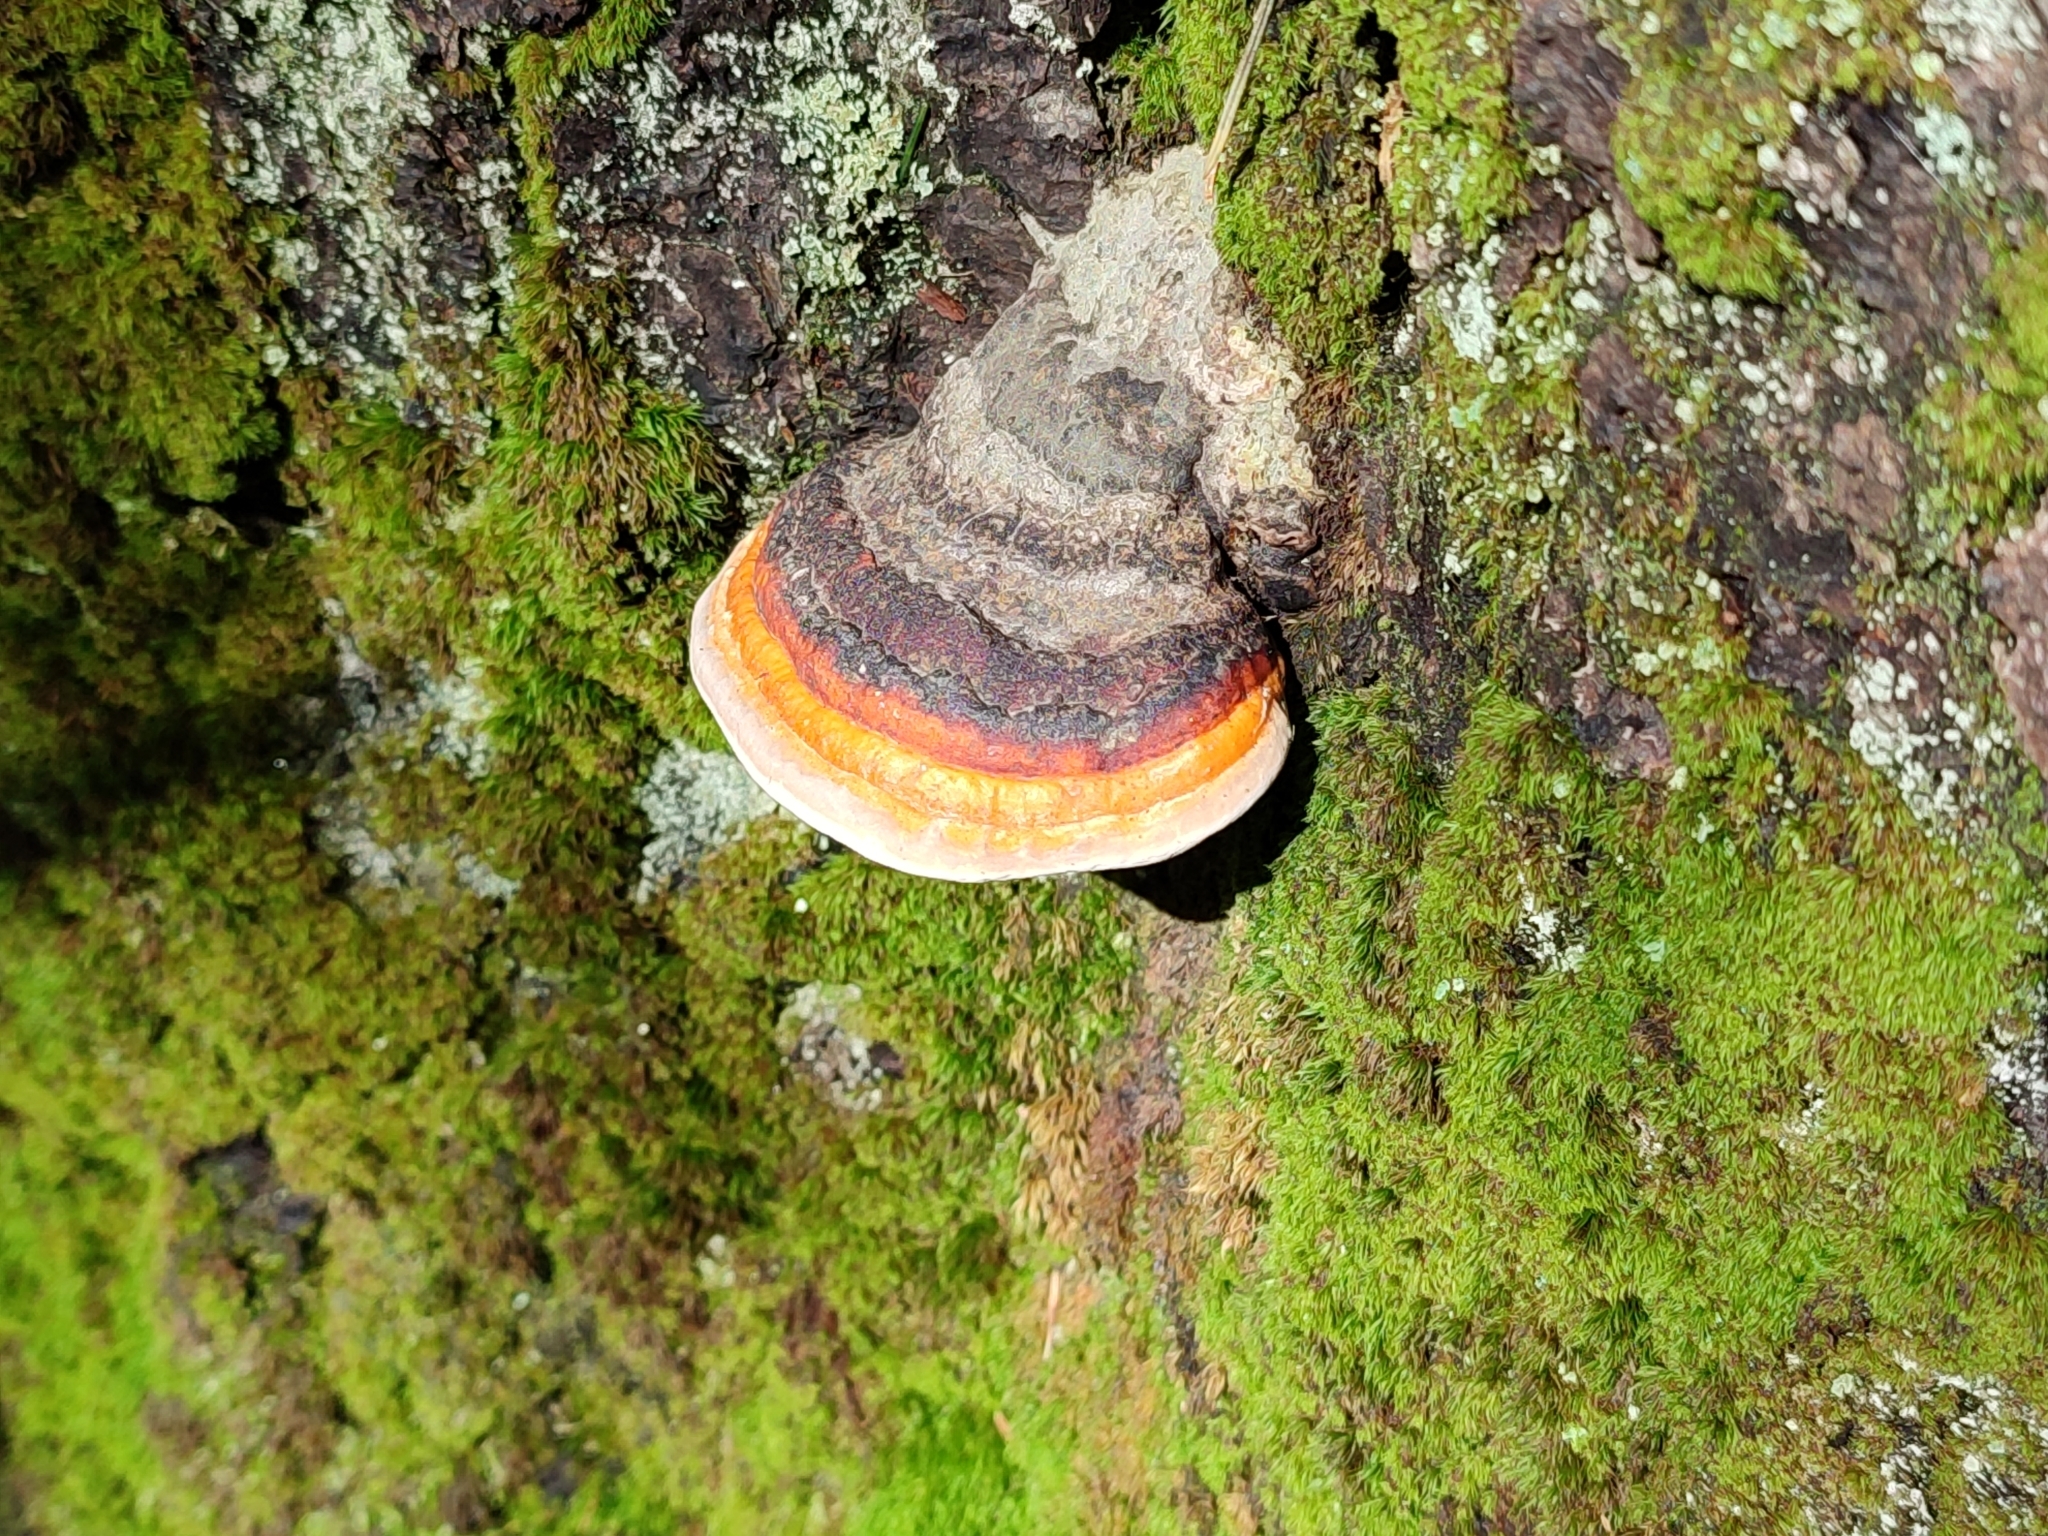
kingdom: Fungi
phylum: Basidiomycota
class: Agaricomycetes
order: Polyporales
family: Fomitopsidaceae
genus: Fomitopsis
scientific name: Fomitopsis pinicola
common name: Red-belted bracket
